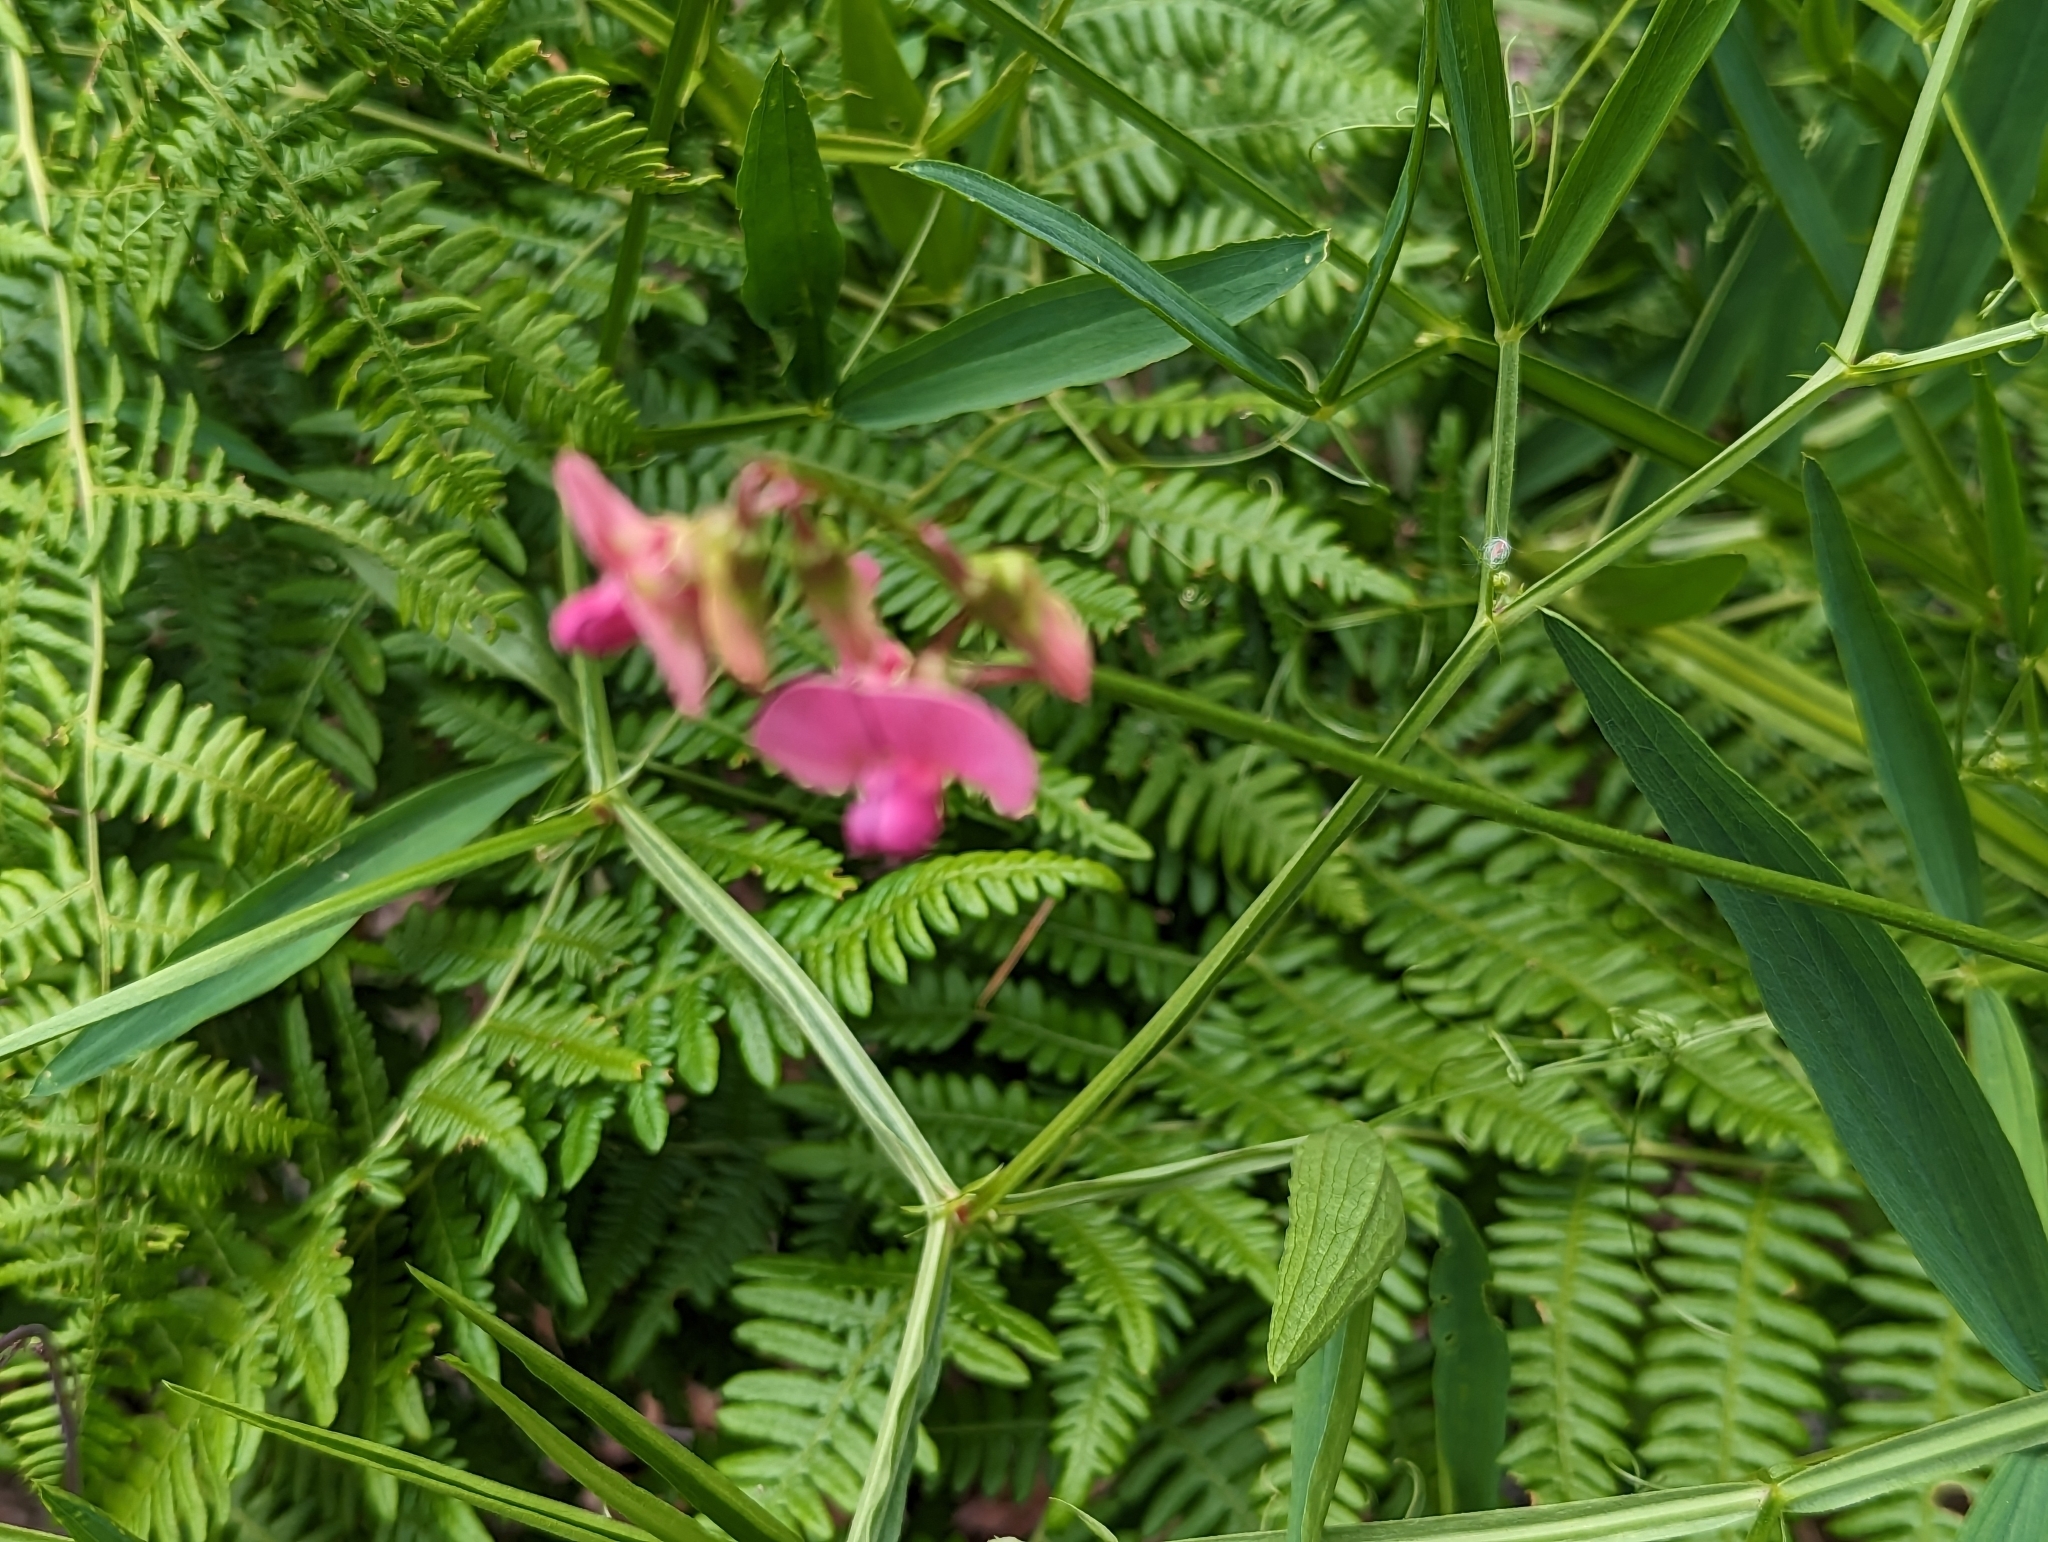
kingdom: Plantae
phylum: Tracheophyta
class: Magnoliopsida
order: Fabales
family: Fabaceae
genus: Lathyrus
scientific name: Lathyrus sylvestris
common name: Flat pea
